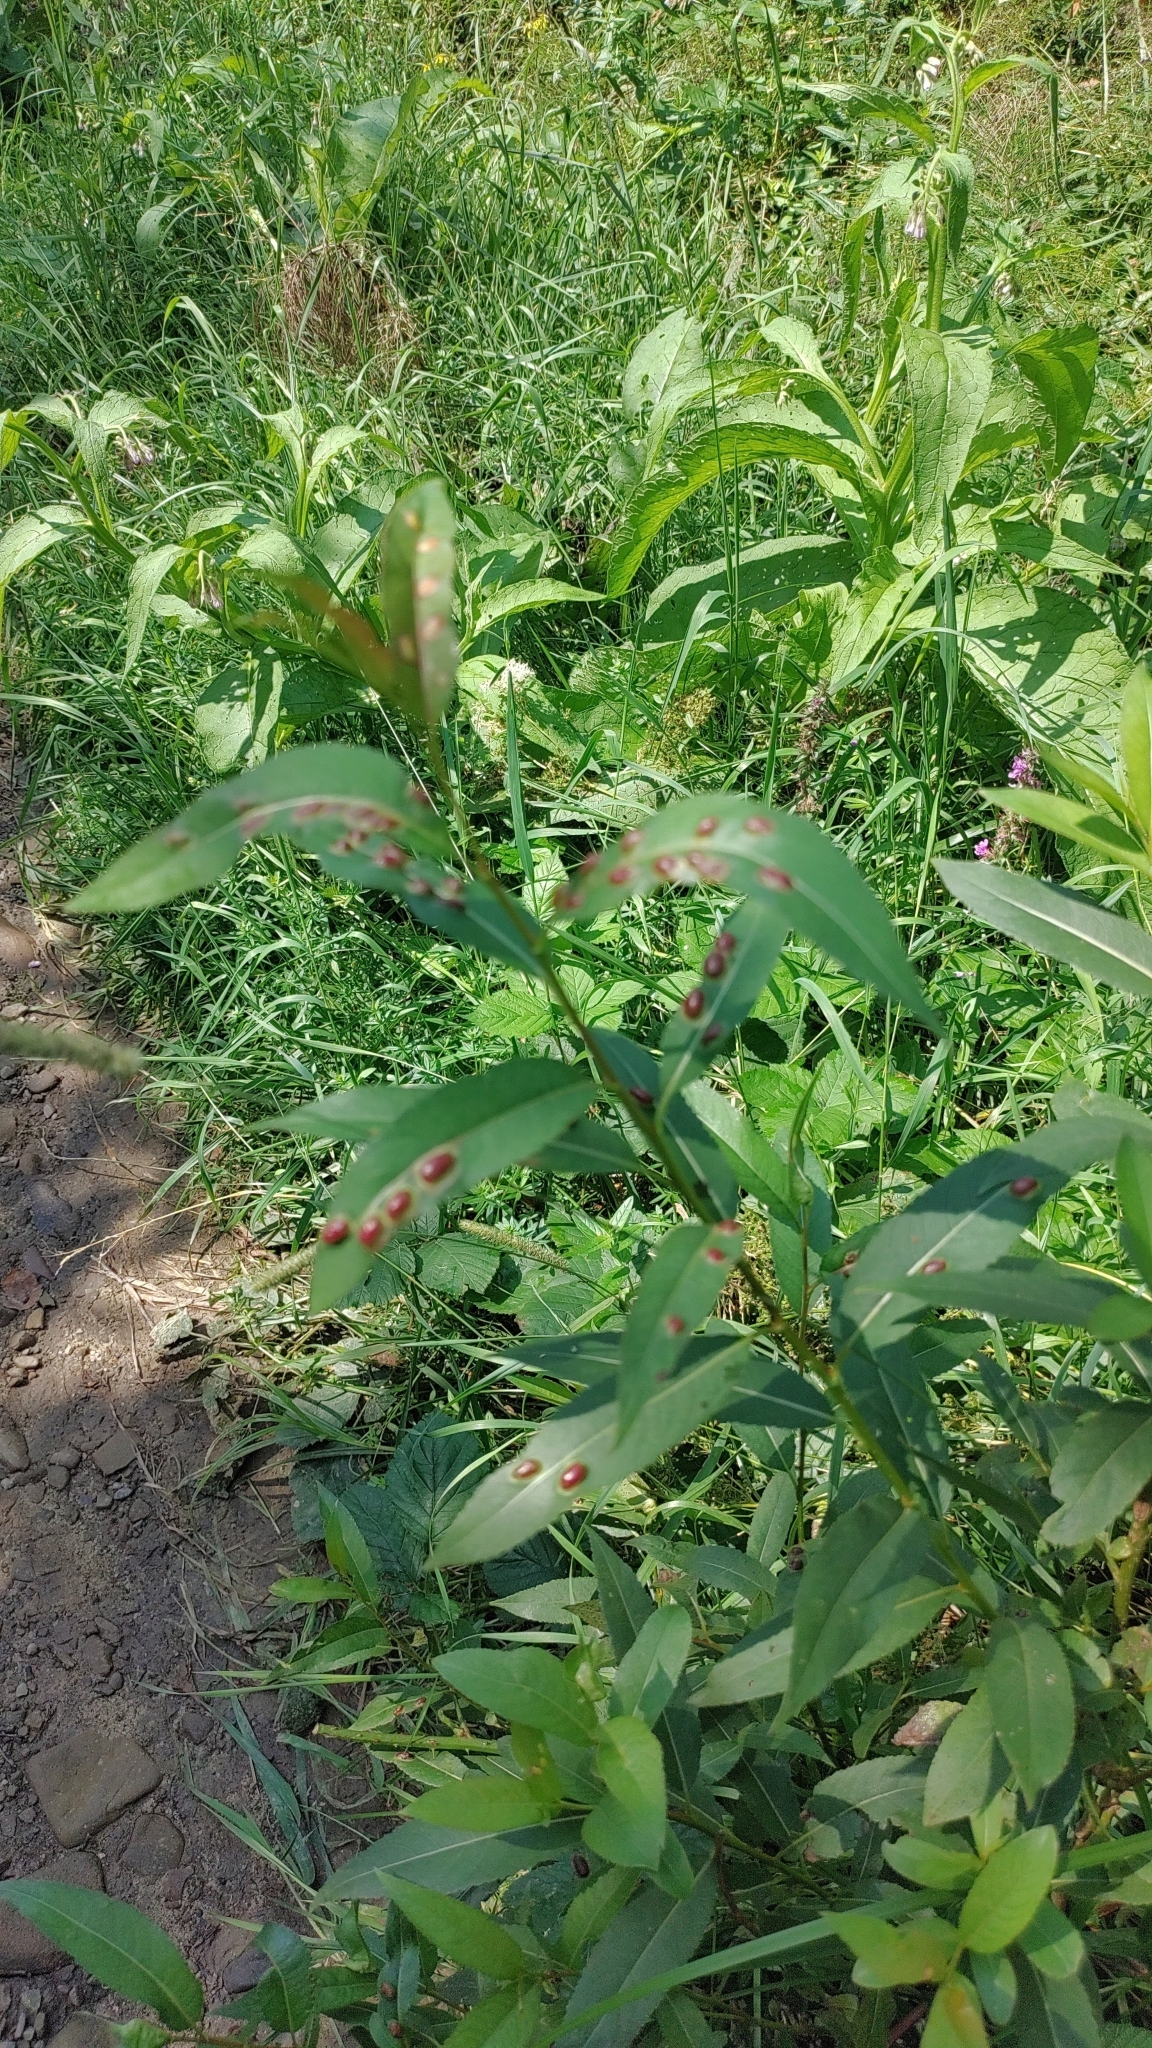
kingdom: Animalia
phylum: Arthropoda
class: Insecta
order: Hymenoptera
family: Tenthredinidae
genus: Pontania
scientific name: Pontania proxima
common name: Common sawfly
